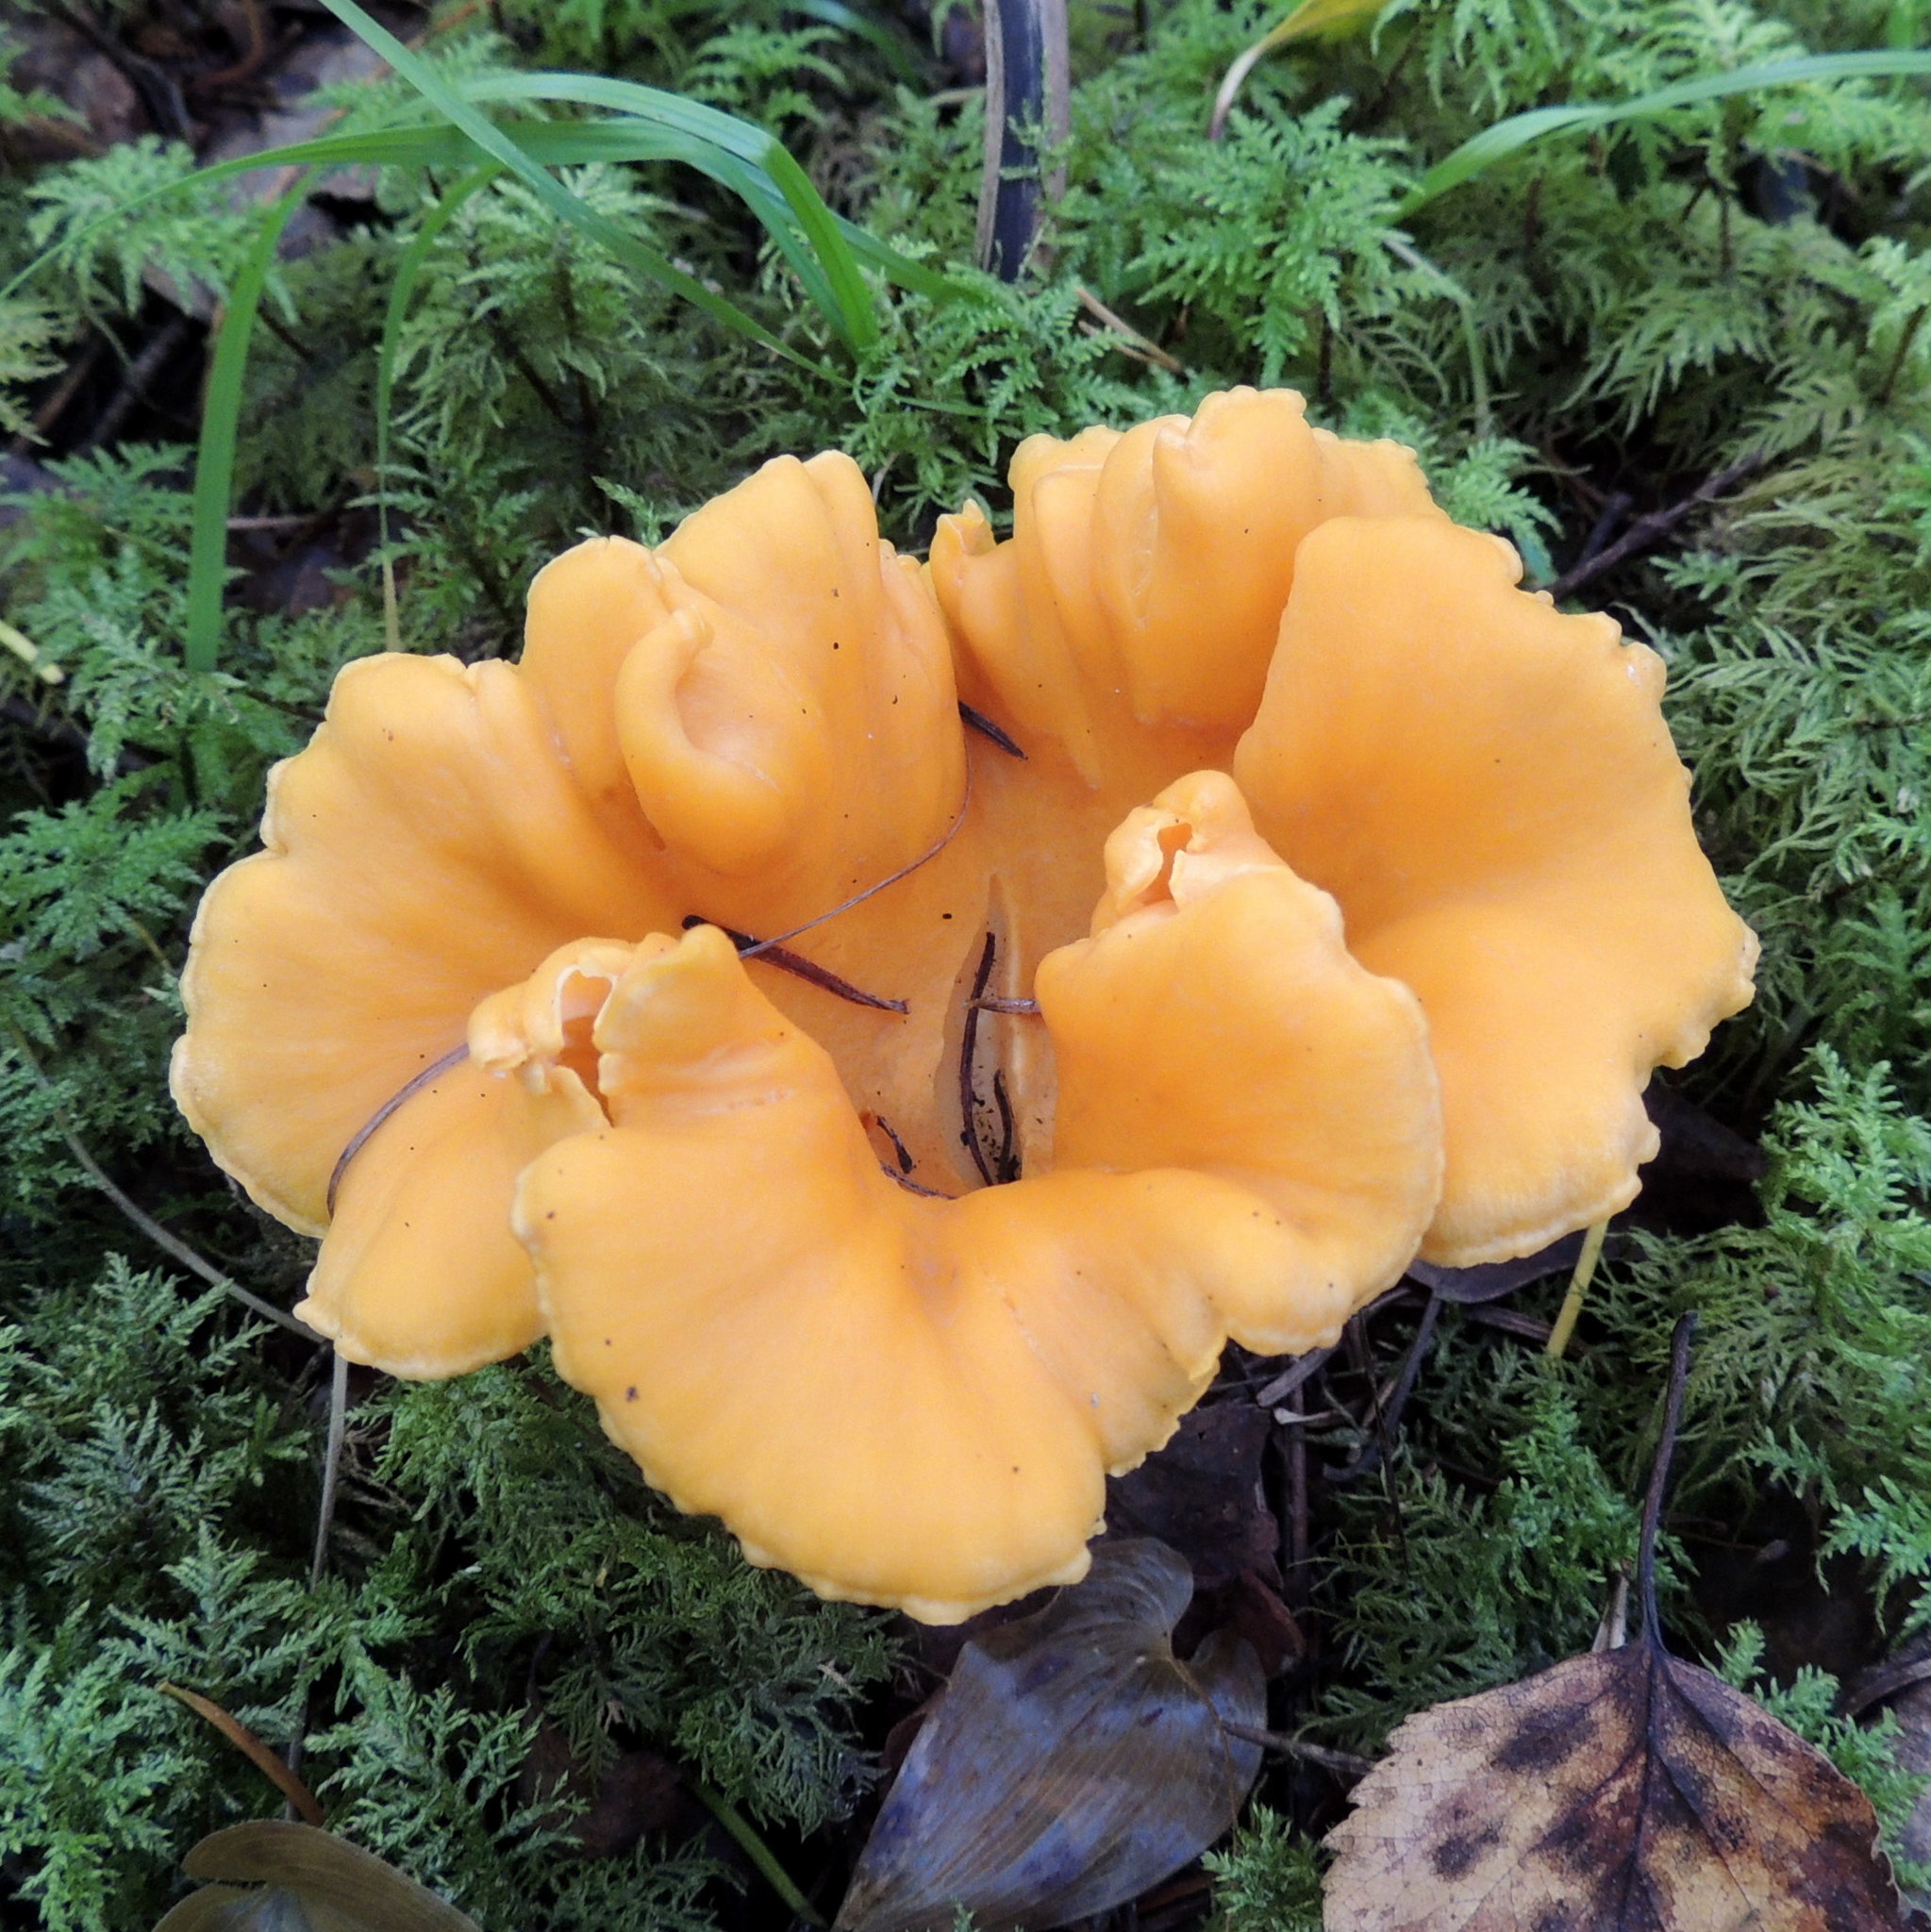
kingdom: Fungi
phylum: Basidiomycota
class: Agaricomycetes
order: Cantharellales
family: Hydnaceae
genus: Cantharellus
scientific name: Cantharellus cibarius
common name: Chanterelle
